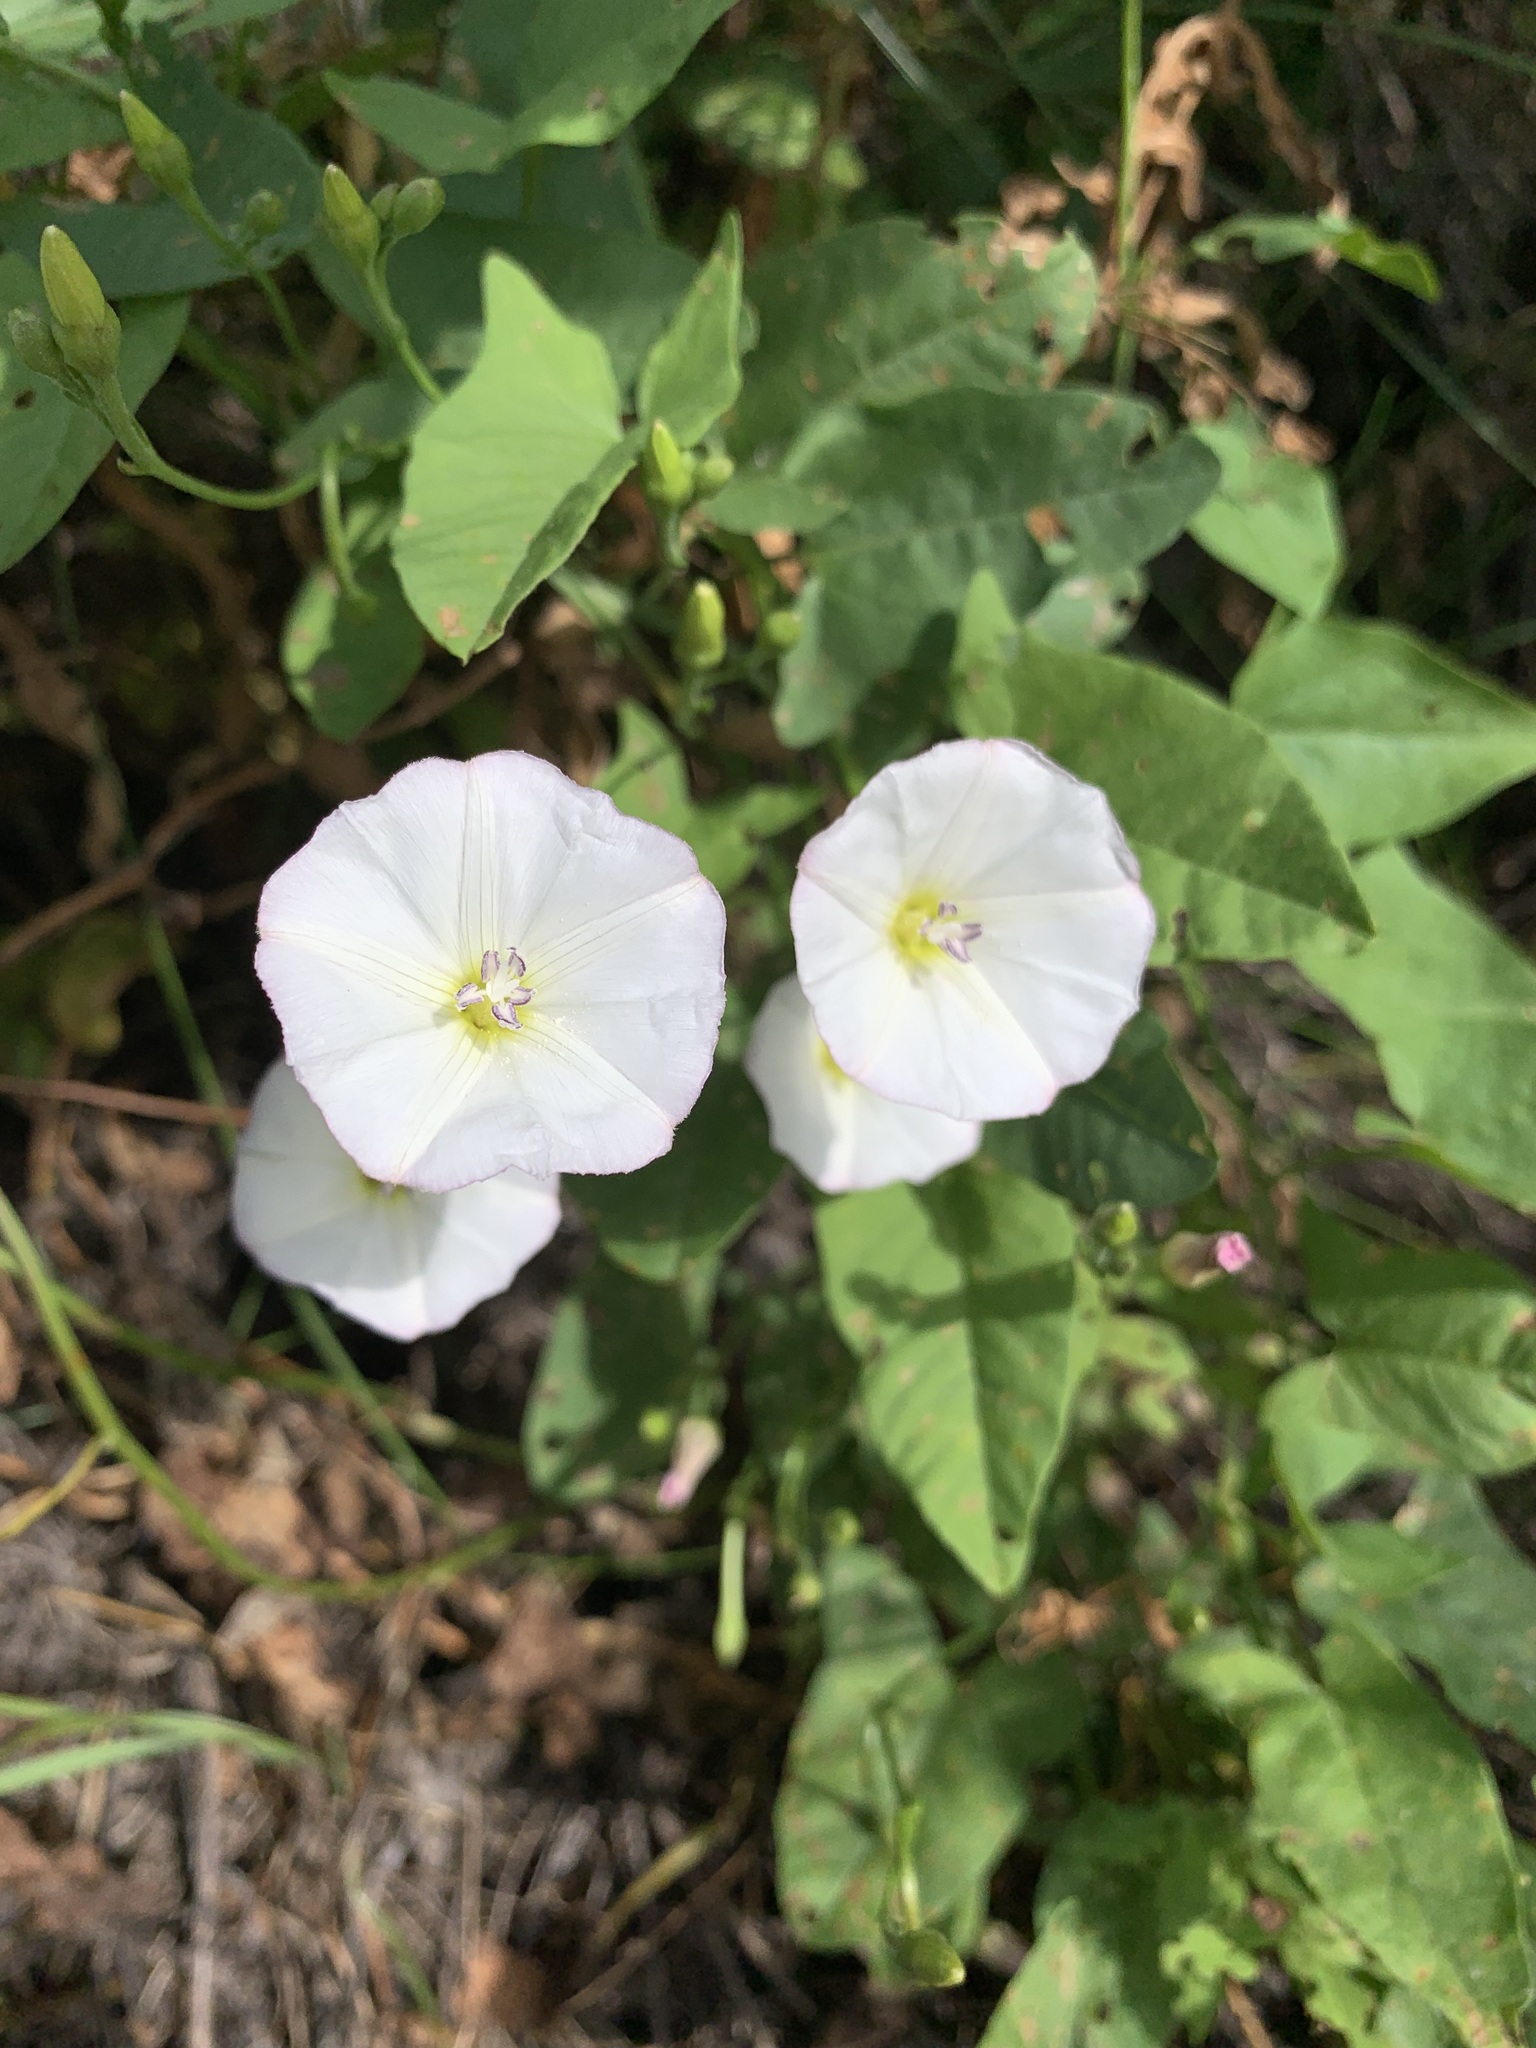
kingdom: Plantae
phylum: Tracheophyta
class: Magnoliopsida
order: Solanales
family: Convolvulaceae
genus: Convolvulus
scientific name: Convolvulus arvensis
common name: Field bindweed
